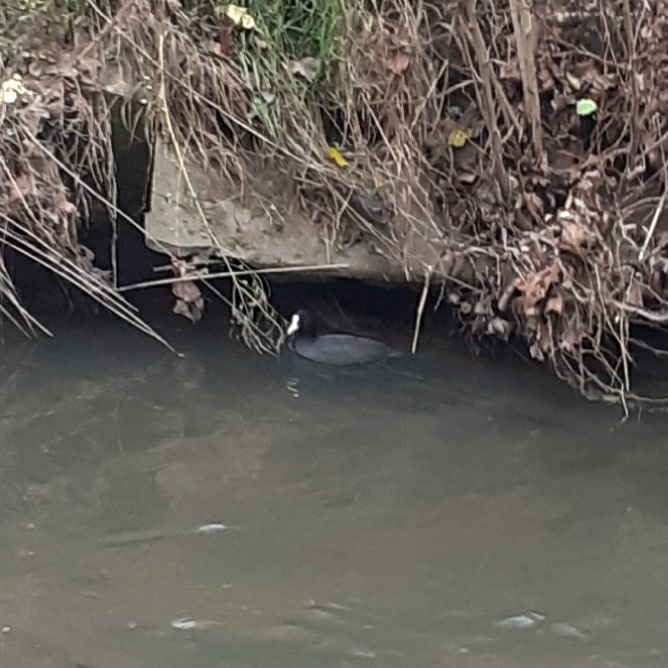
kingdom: Animalia
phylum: Chordata
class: Aves
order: Gruiformes
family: Rallidae
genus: Fulica
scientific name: Fulica atra
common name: Eurasian coot
